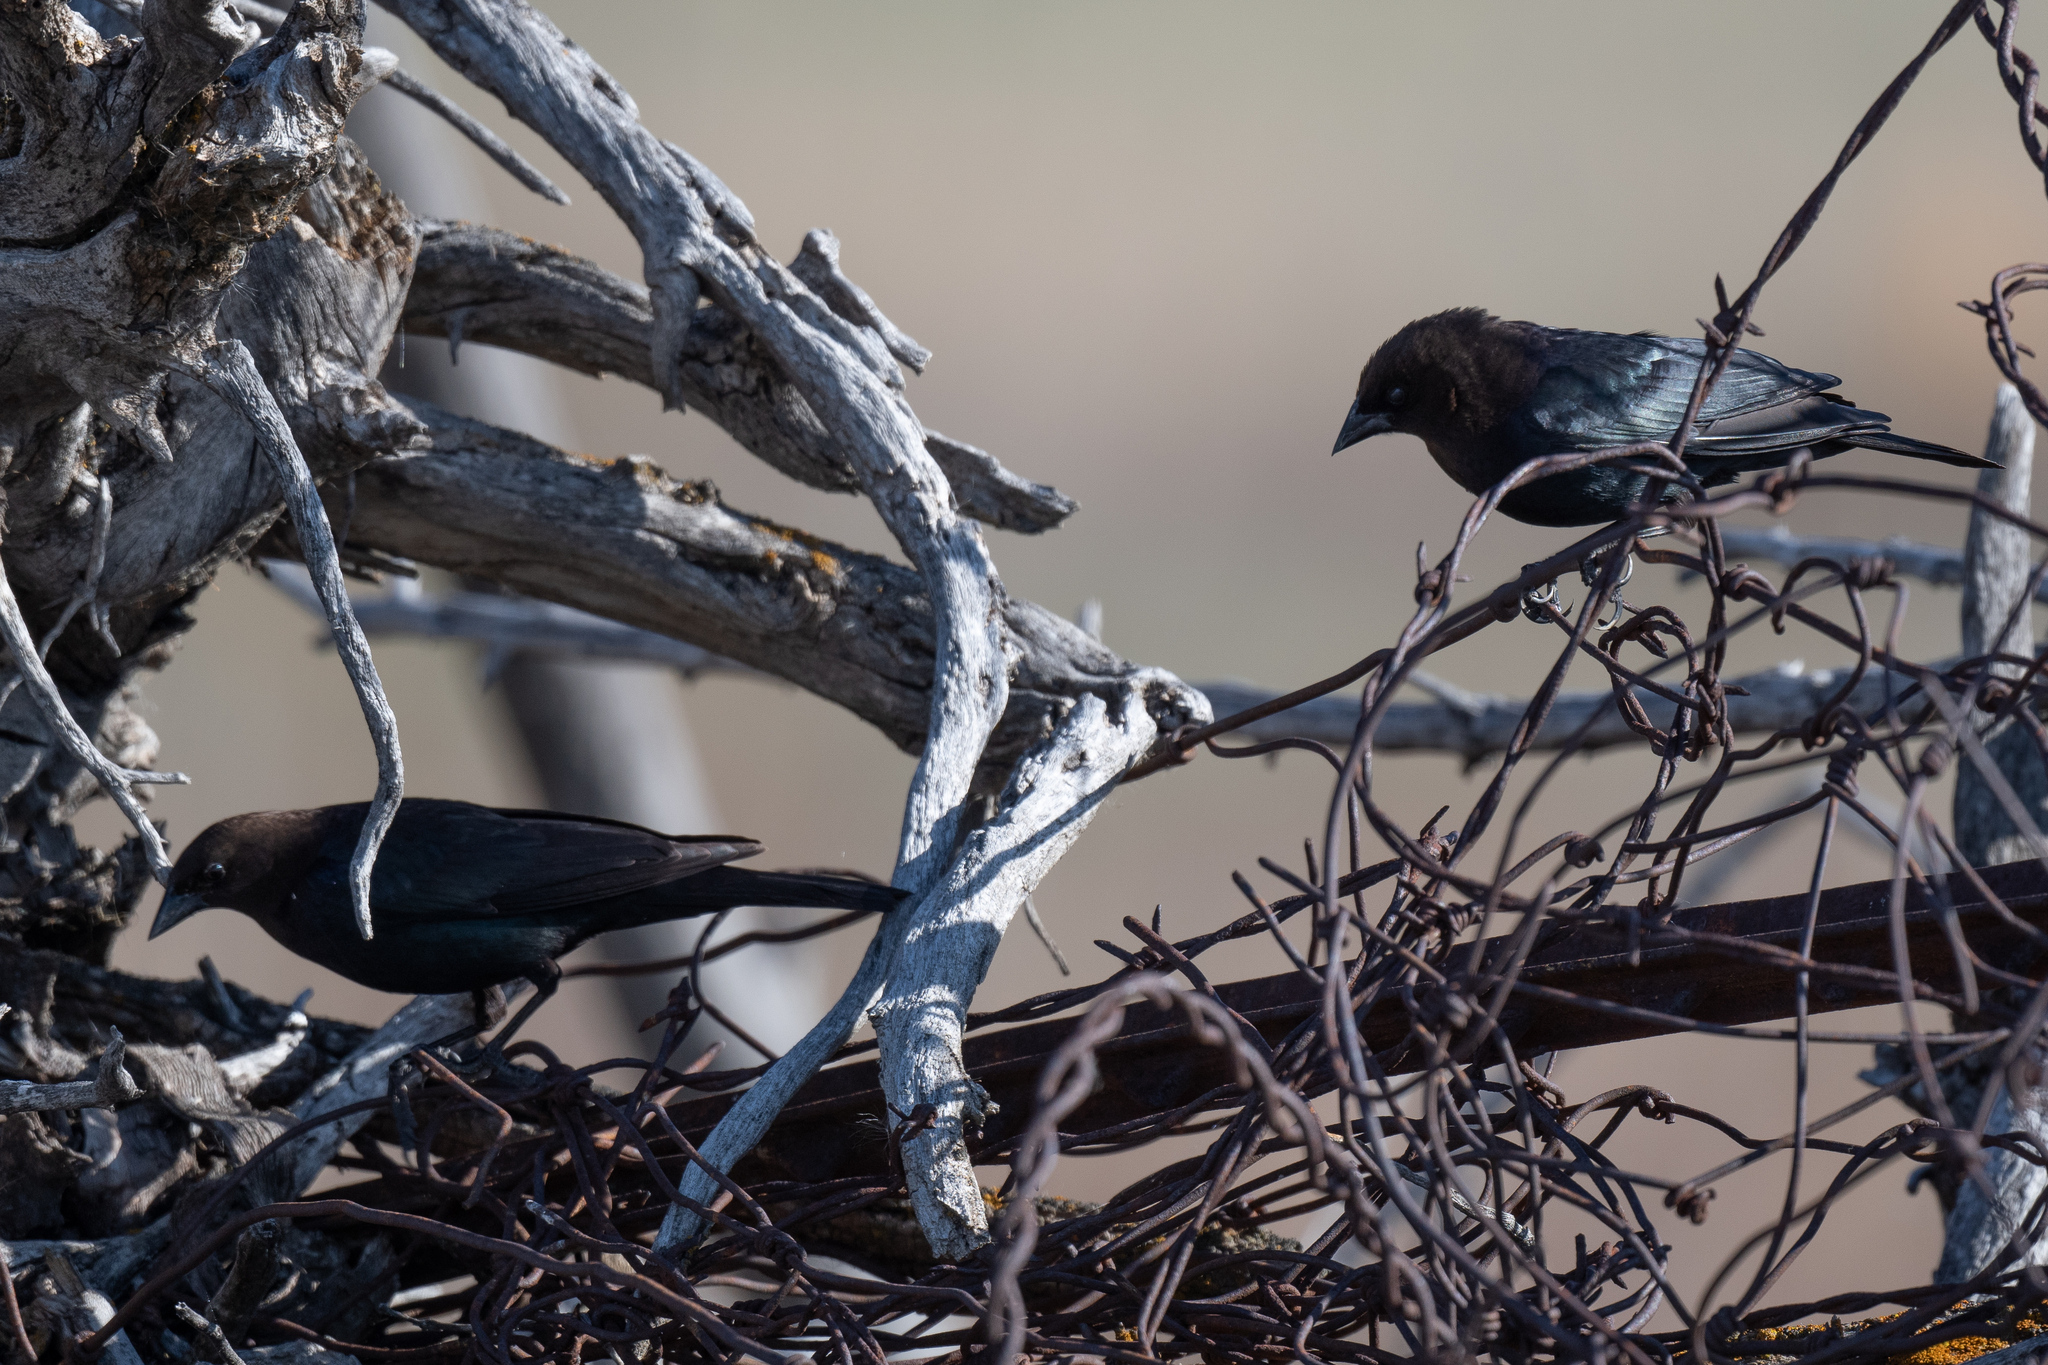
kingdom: Animalia
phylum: Chordata
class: Aves
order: Passeriformes
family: Icteridae
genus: Molothrus
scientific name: Molothrus ater
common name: Brown-headed cowbird
